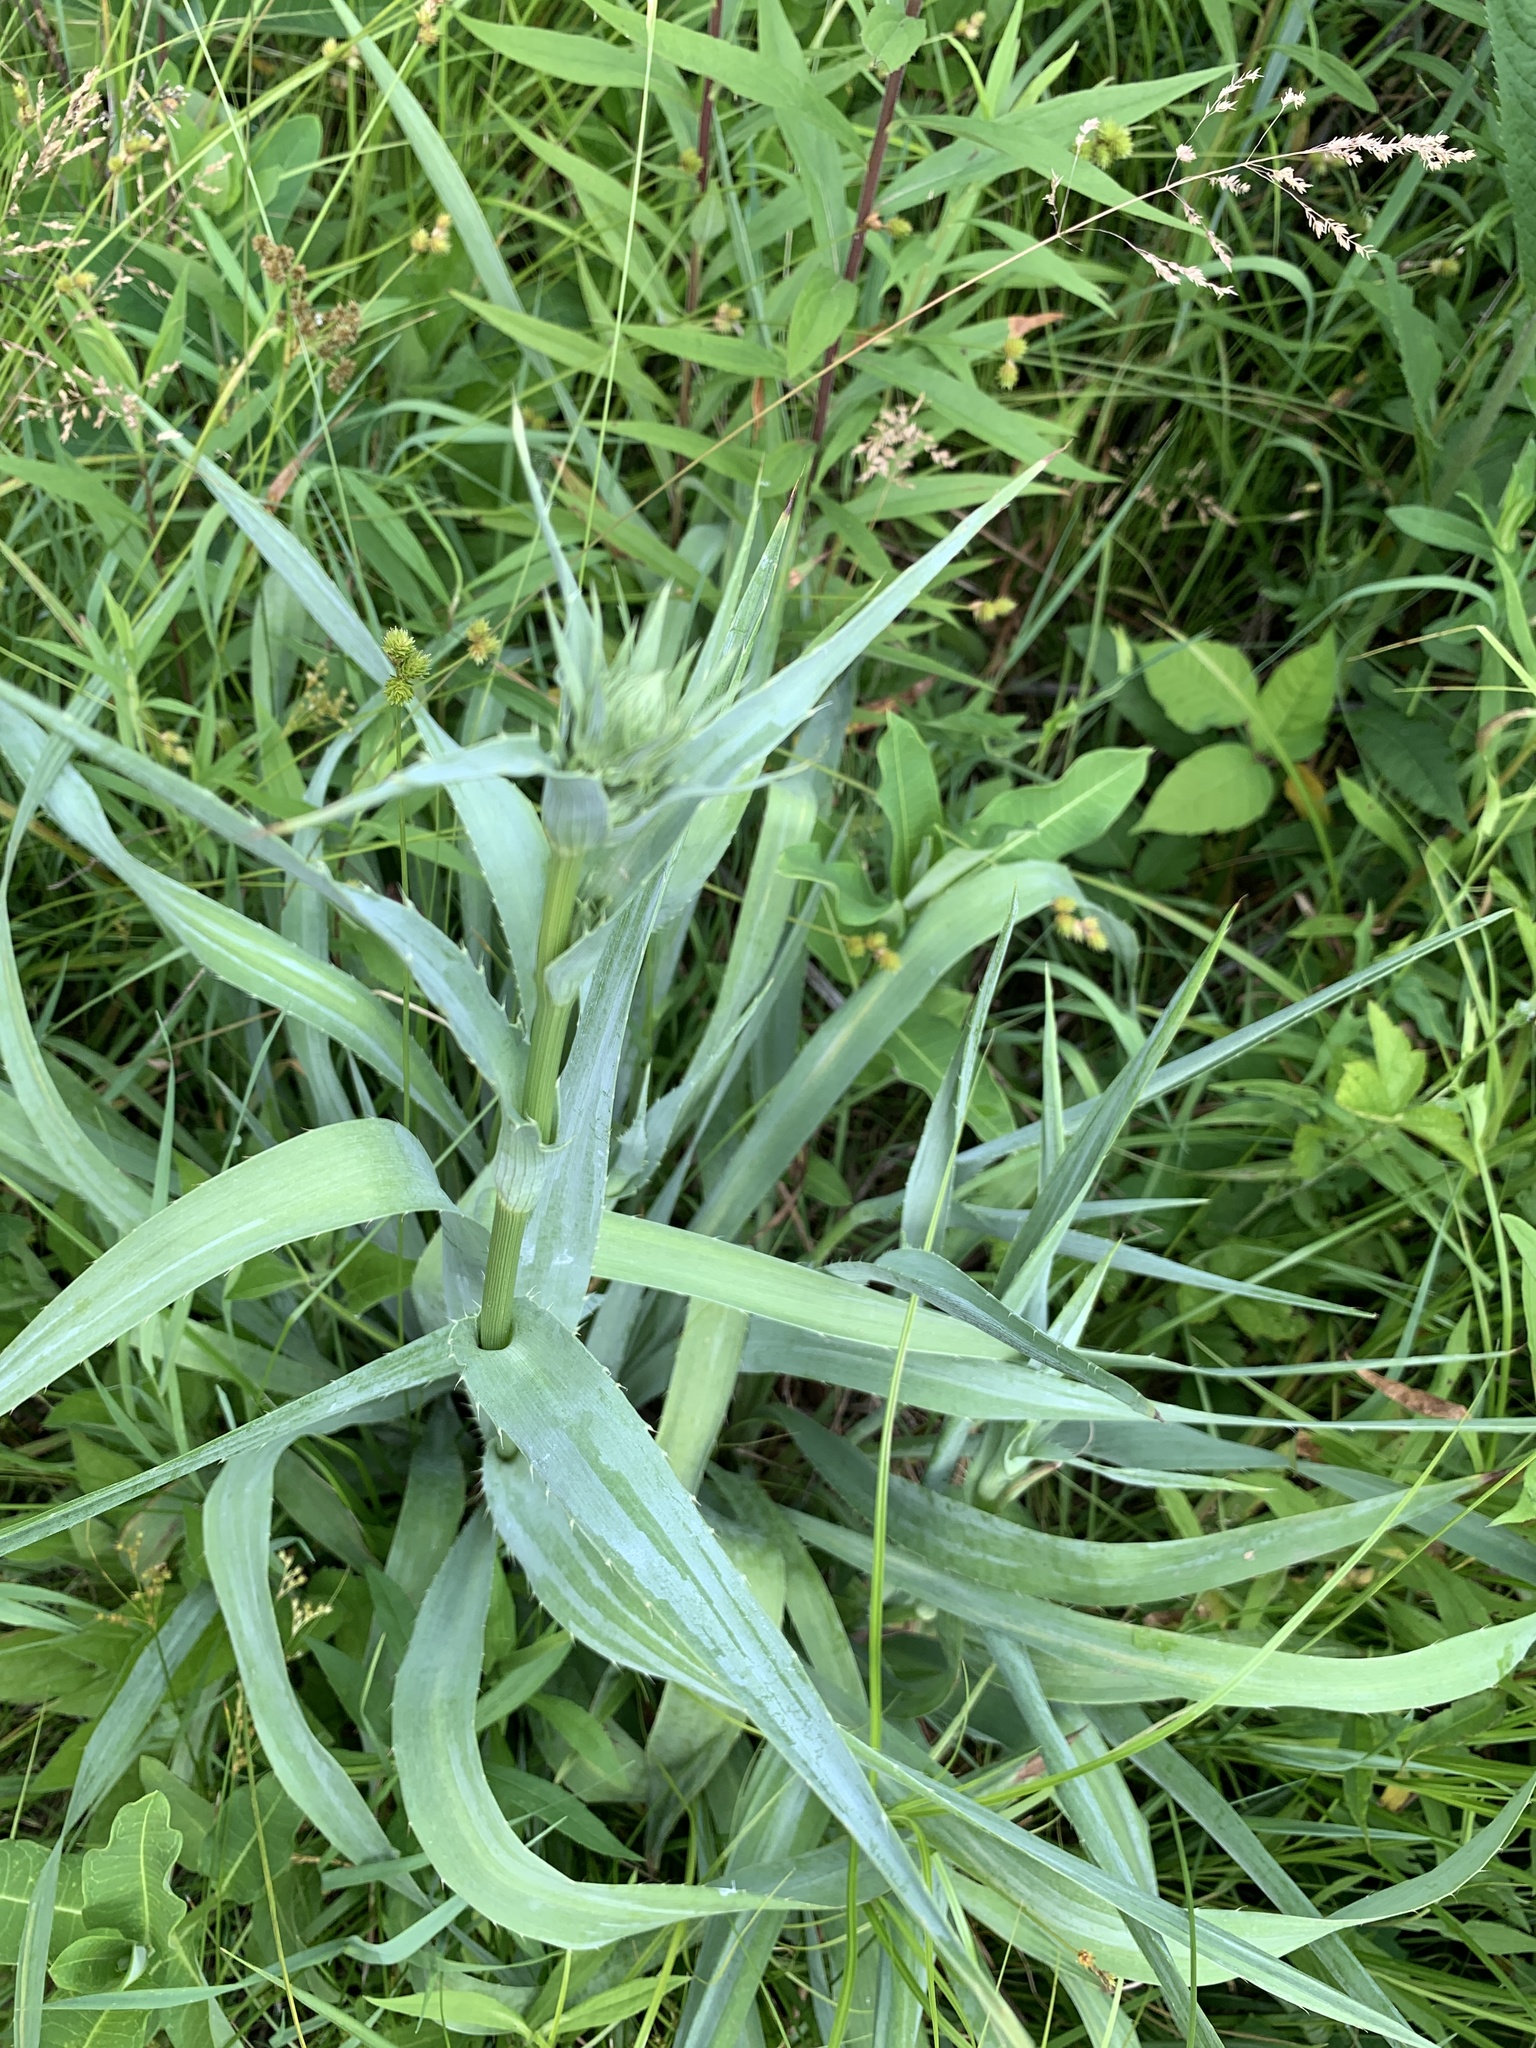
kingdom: Plantae
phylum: Tracheophyta
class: Magnoliopsida
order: Apiales
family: Apiaceae
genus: Eryngium
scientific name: Eryngium yuccifolium
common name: Button eryngo
